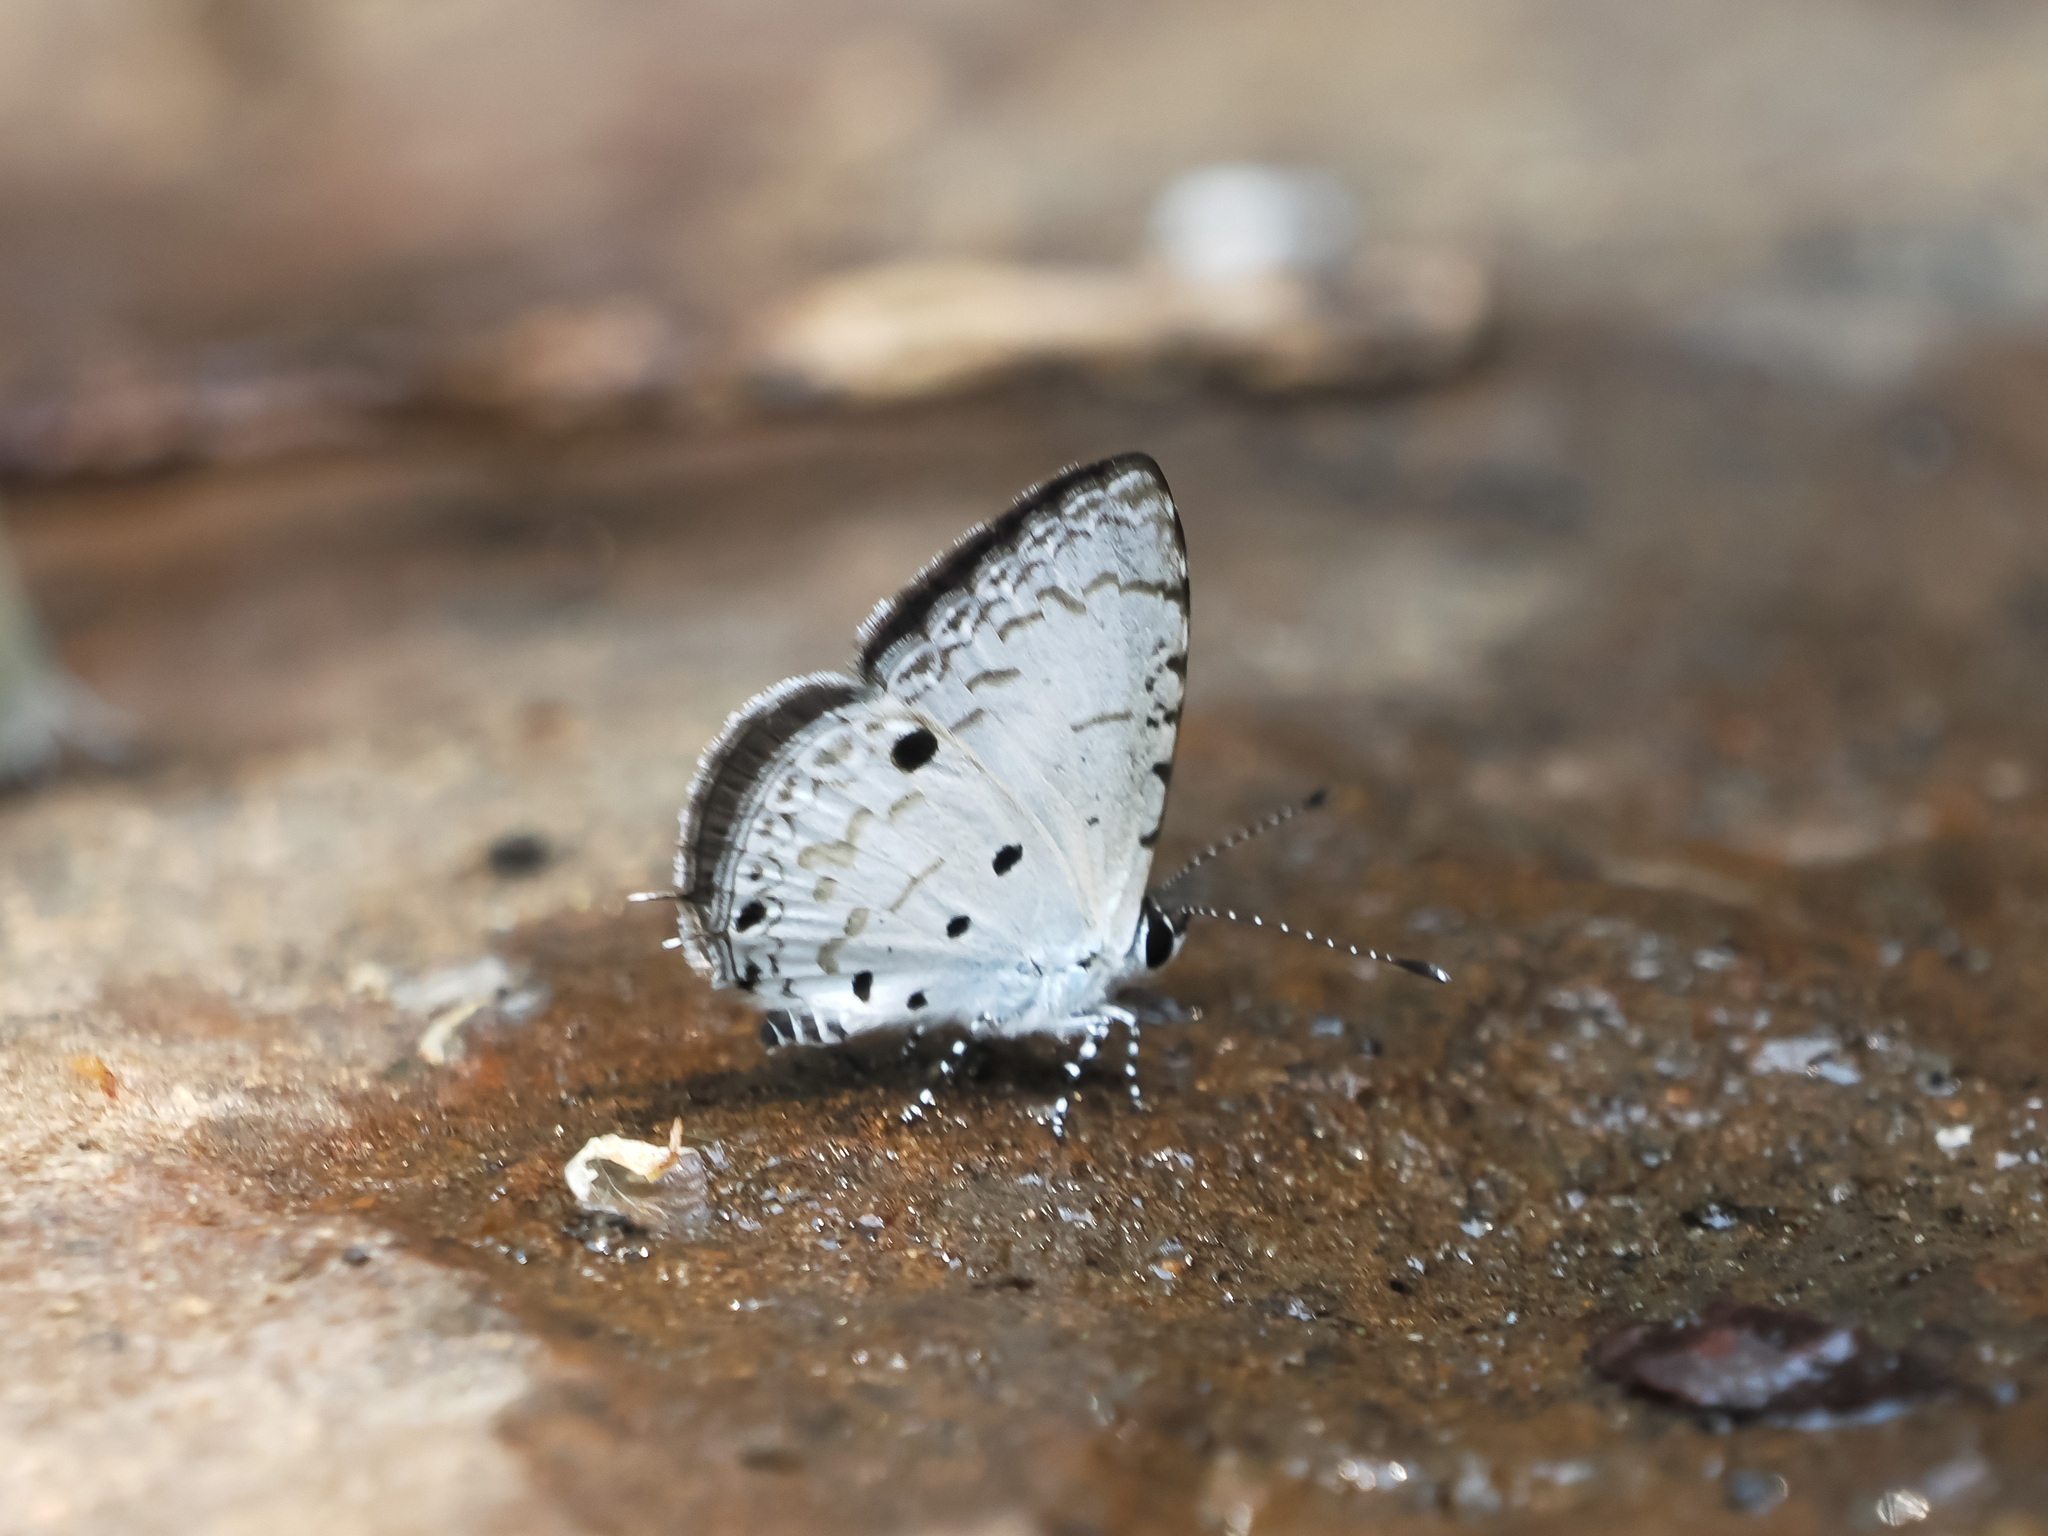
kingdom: Animalia
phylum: Arthropoda
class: Insecta
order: Lepidoptera
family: Lycaenidae
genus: Megisba
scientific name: Megisba malaya
